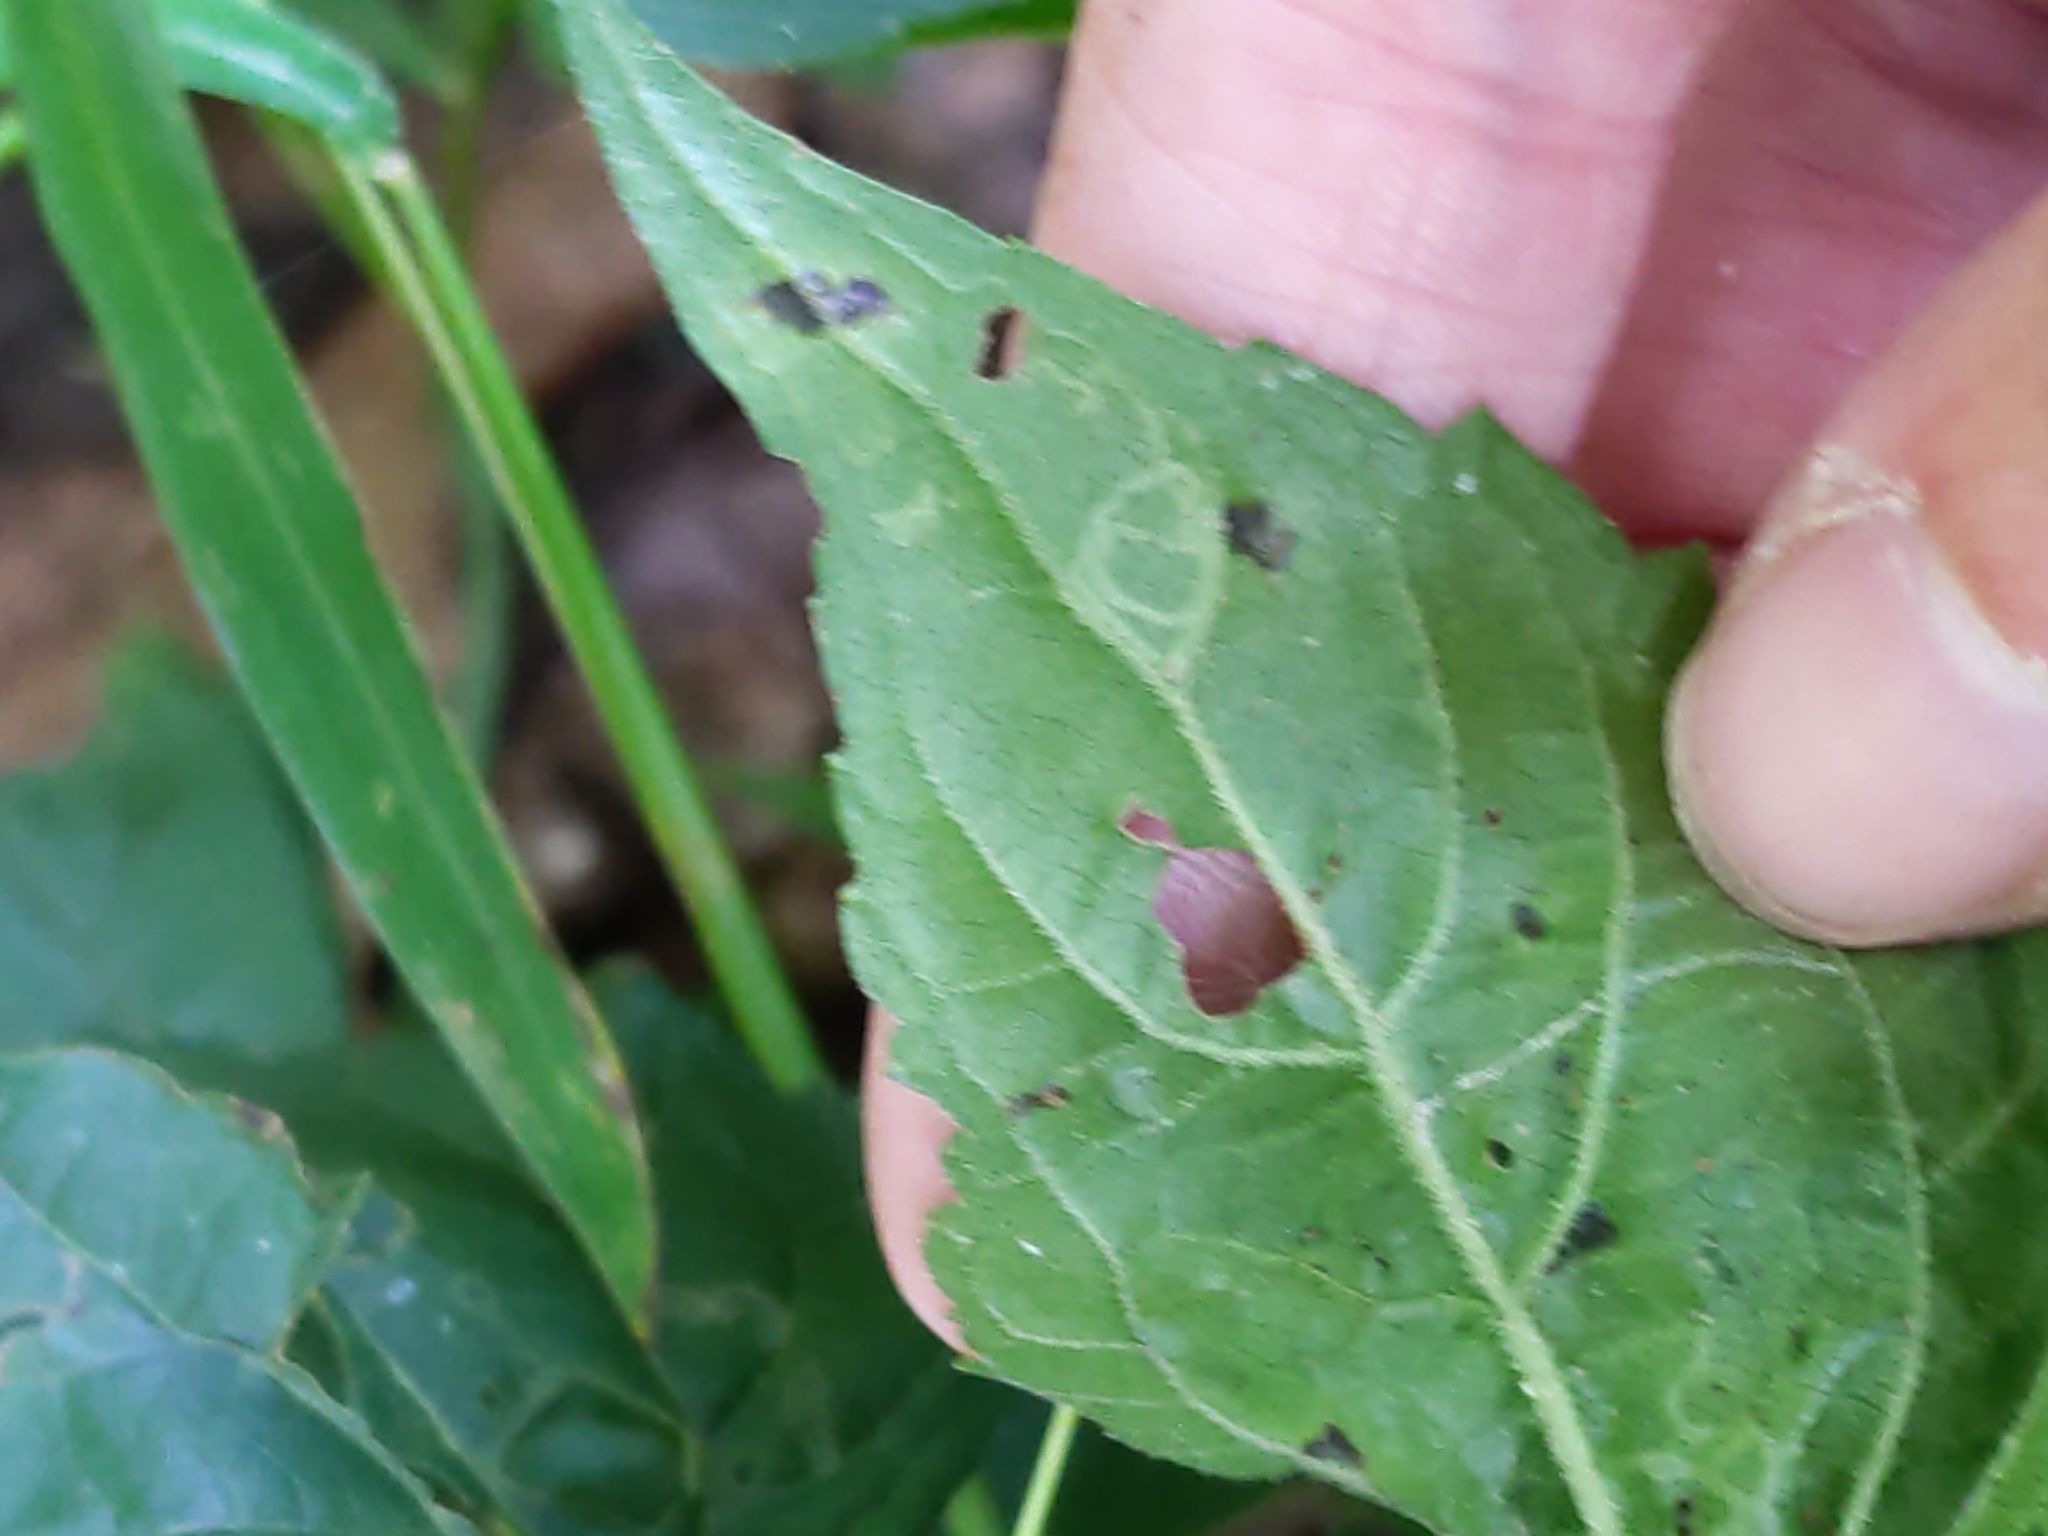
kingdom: Animalia
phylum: Arthropoda
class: Insecta
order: Diptera
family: Agromyzidae
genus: Liriomyza
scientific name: Liriomyza
